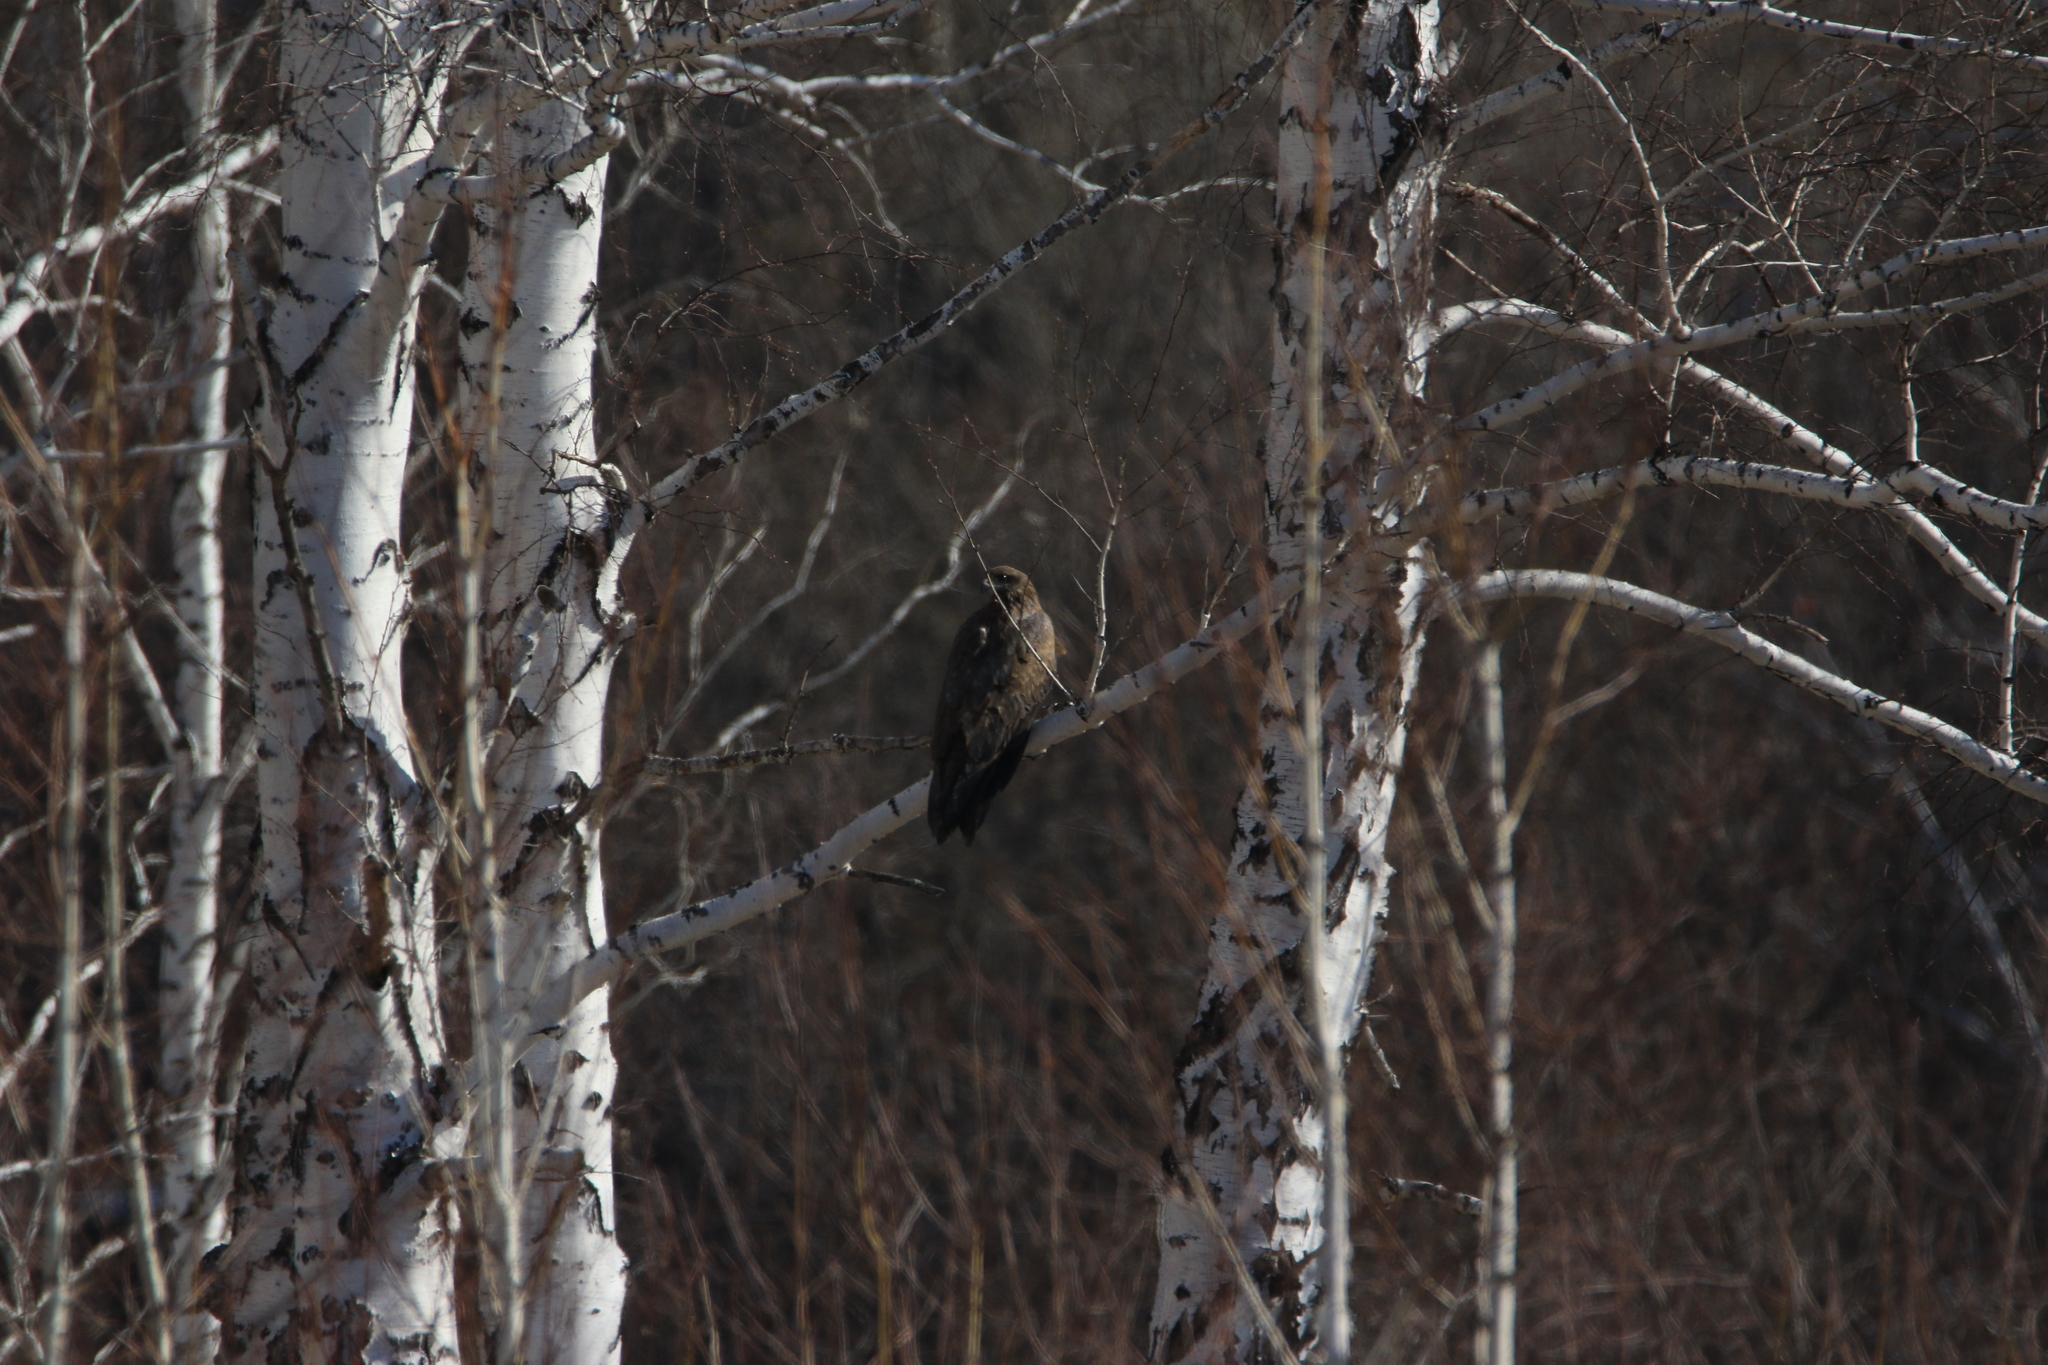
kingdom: Animalia
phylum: Chordata
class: Aves
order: Accipitriformes
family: Accipitridae
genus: Milvus
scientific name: Milvus migrans
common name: Black kite
